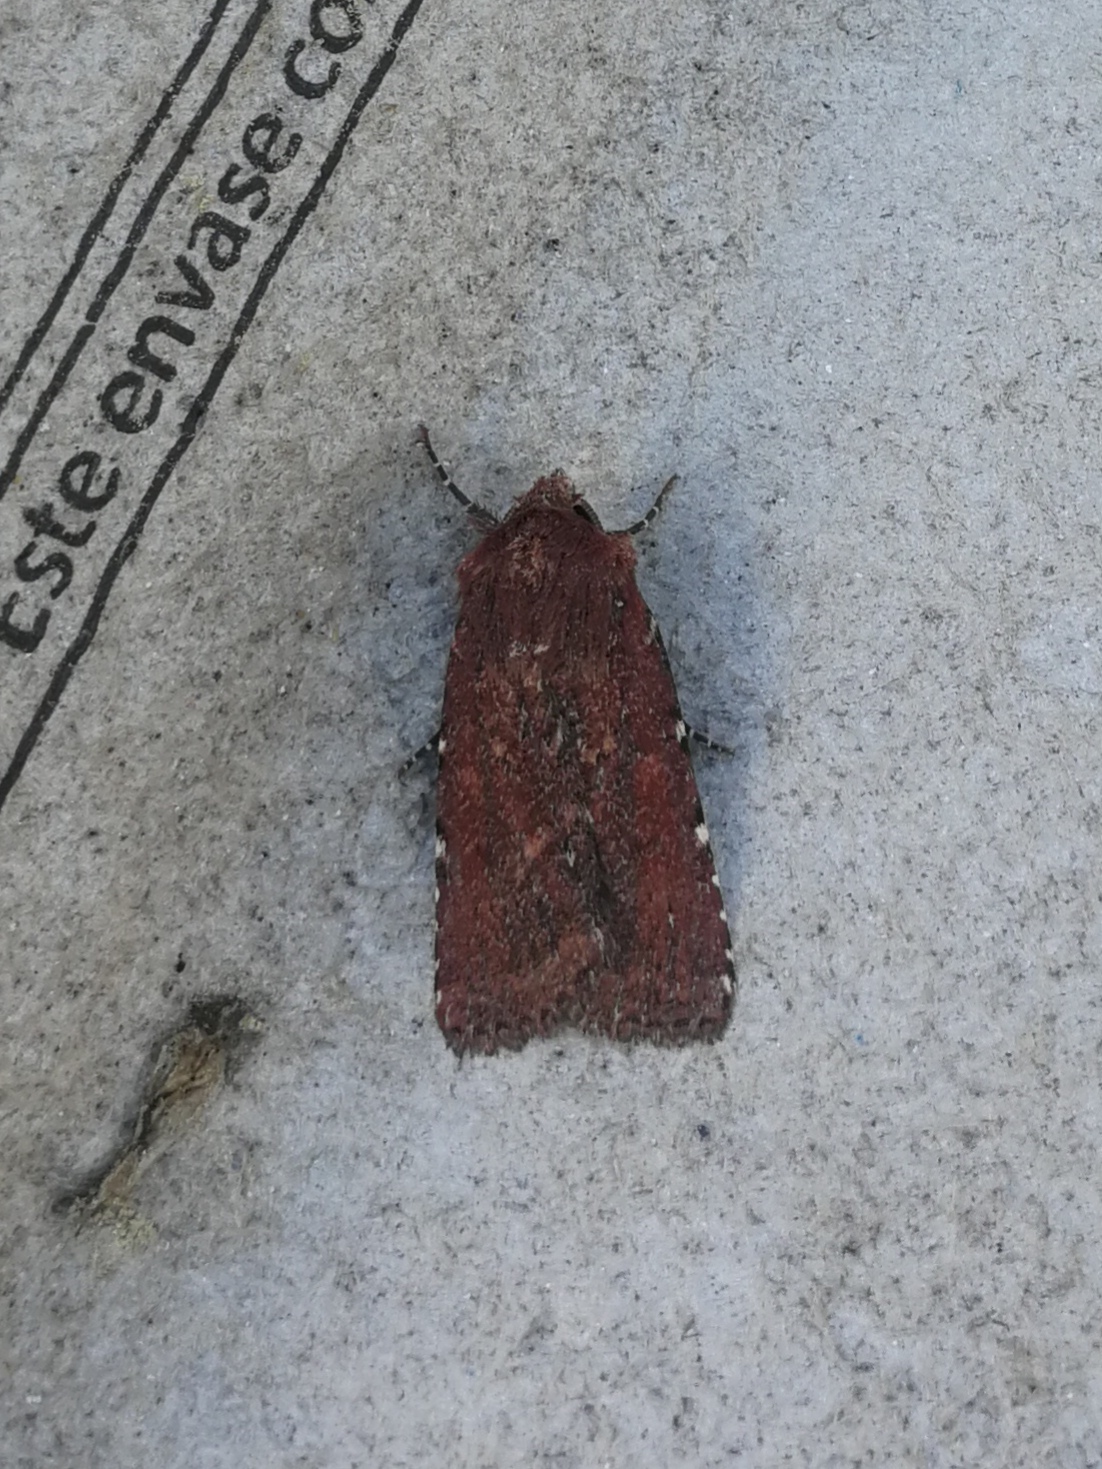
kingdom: Animalia
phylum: Arthropoda
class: Insecta
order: Lepidoptera
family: Noctuidae
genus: Lycophotia
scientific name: Lycophotia erythrina
